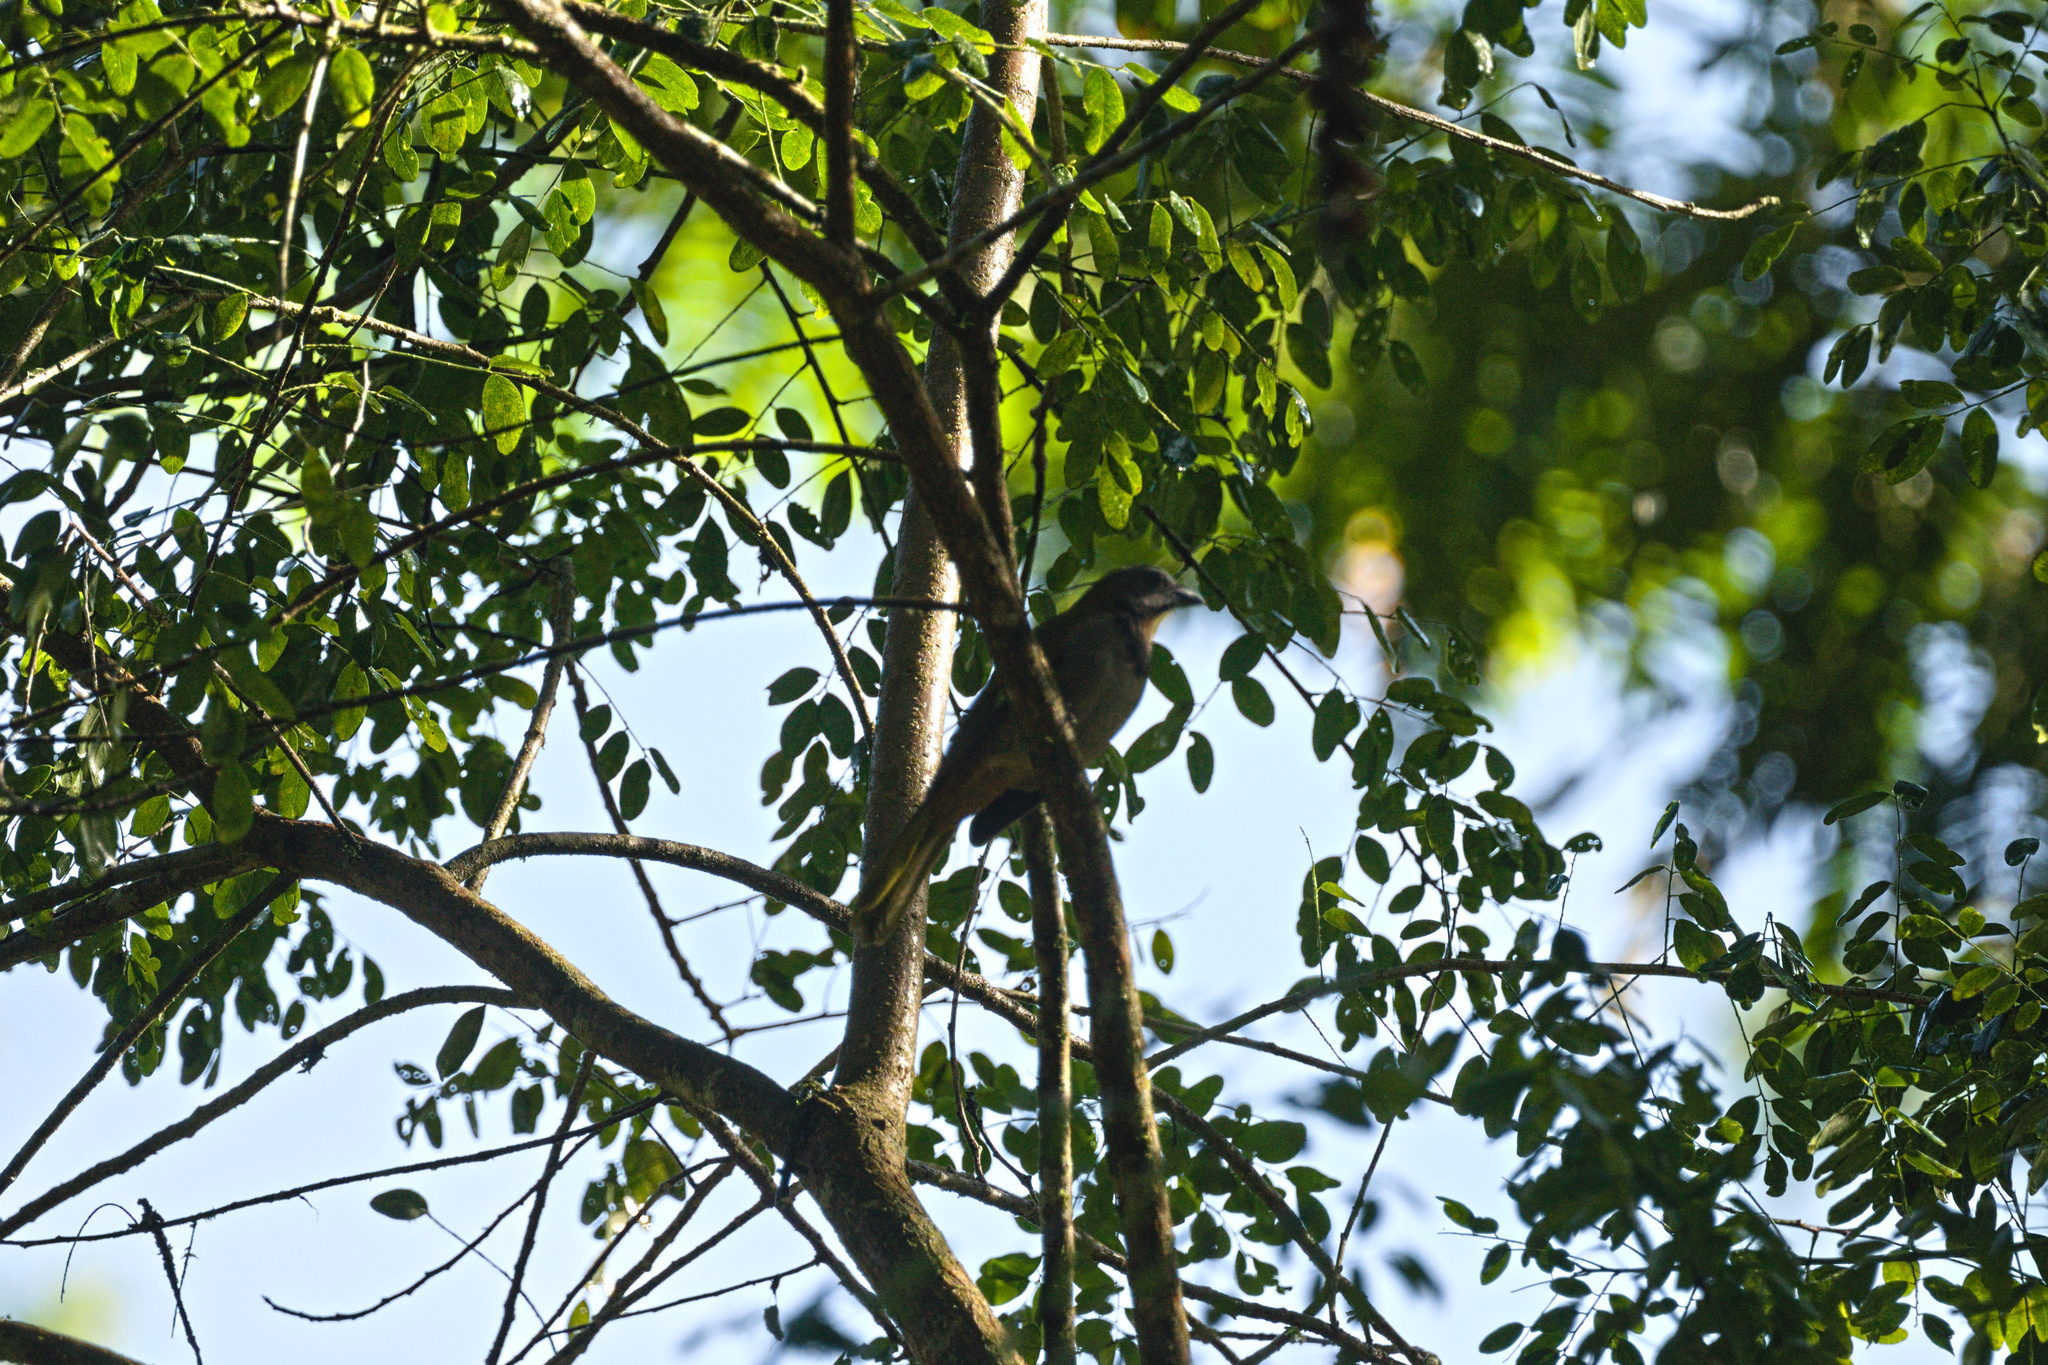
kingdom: Animalia
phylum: Chordata
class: Aves
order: Passeriformes
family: Thraupidae
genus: Saltator
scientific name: Saltator maximus
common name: Buff-throated saltator
